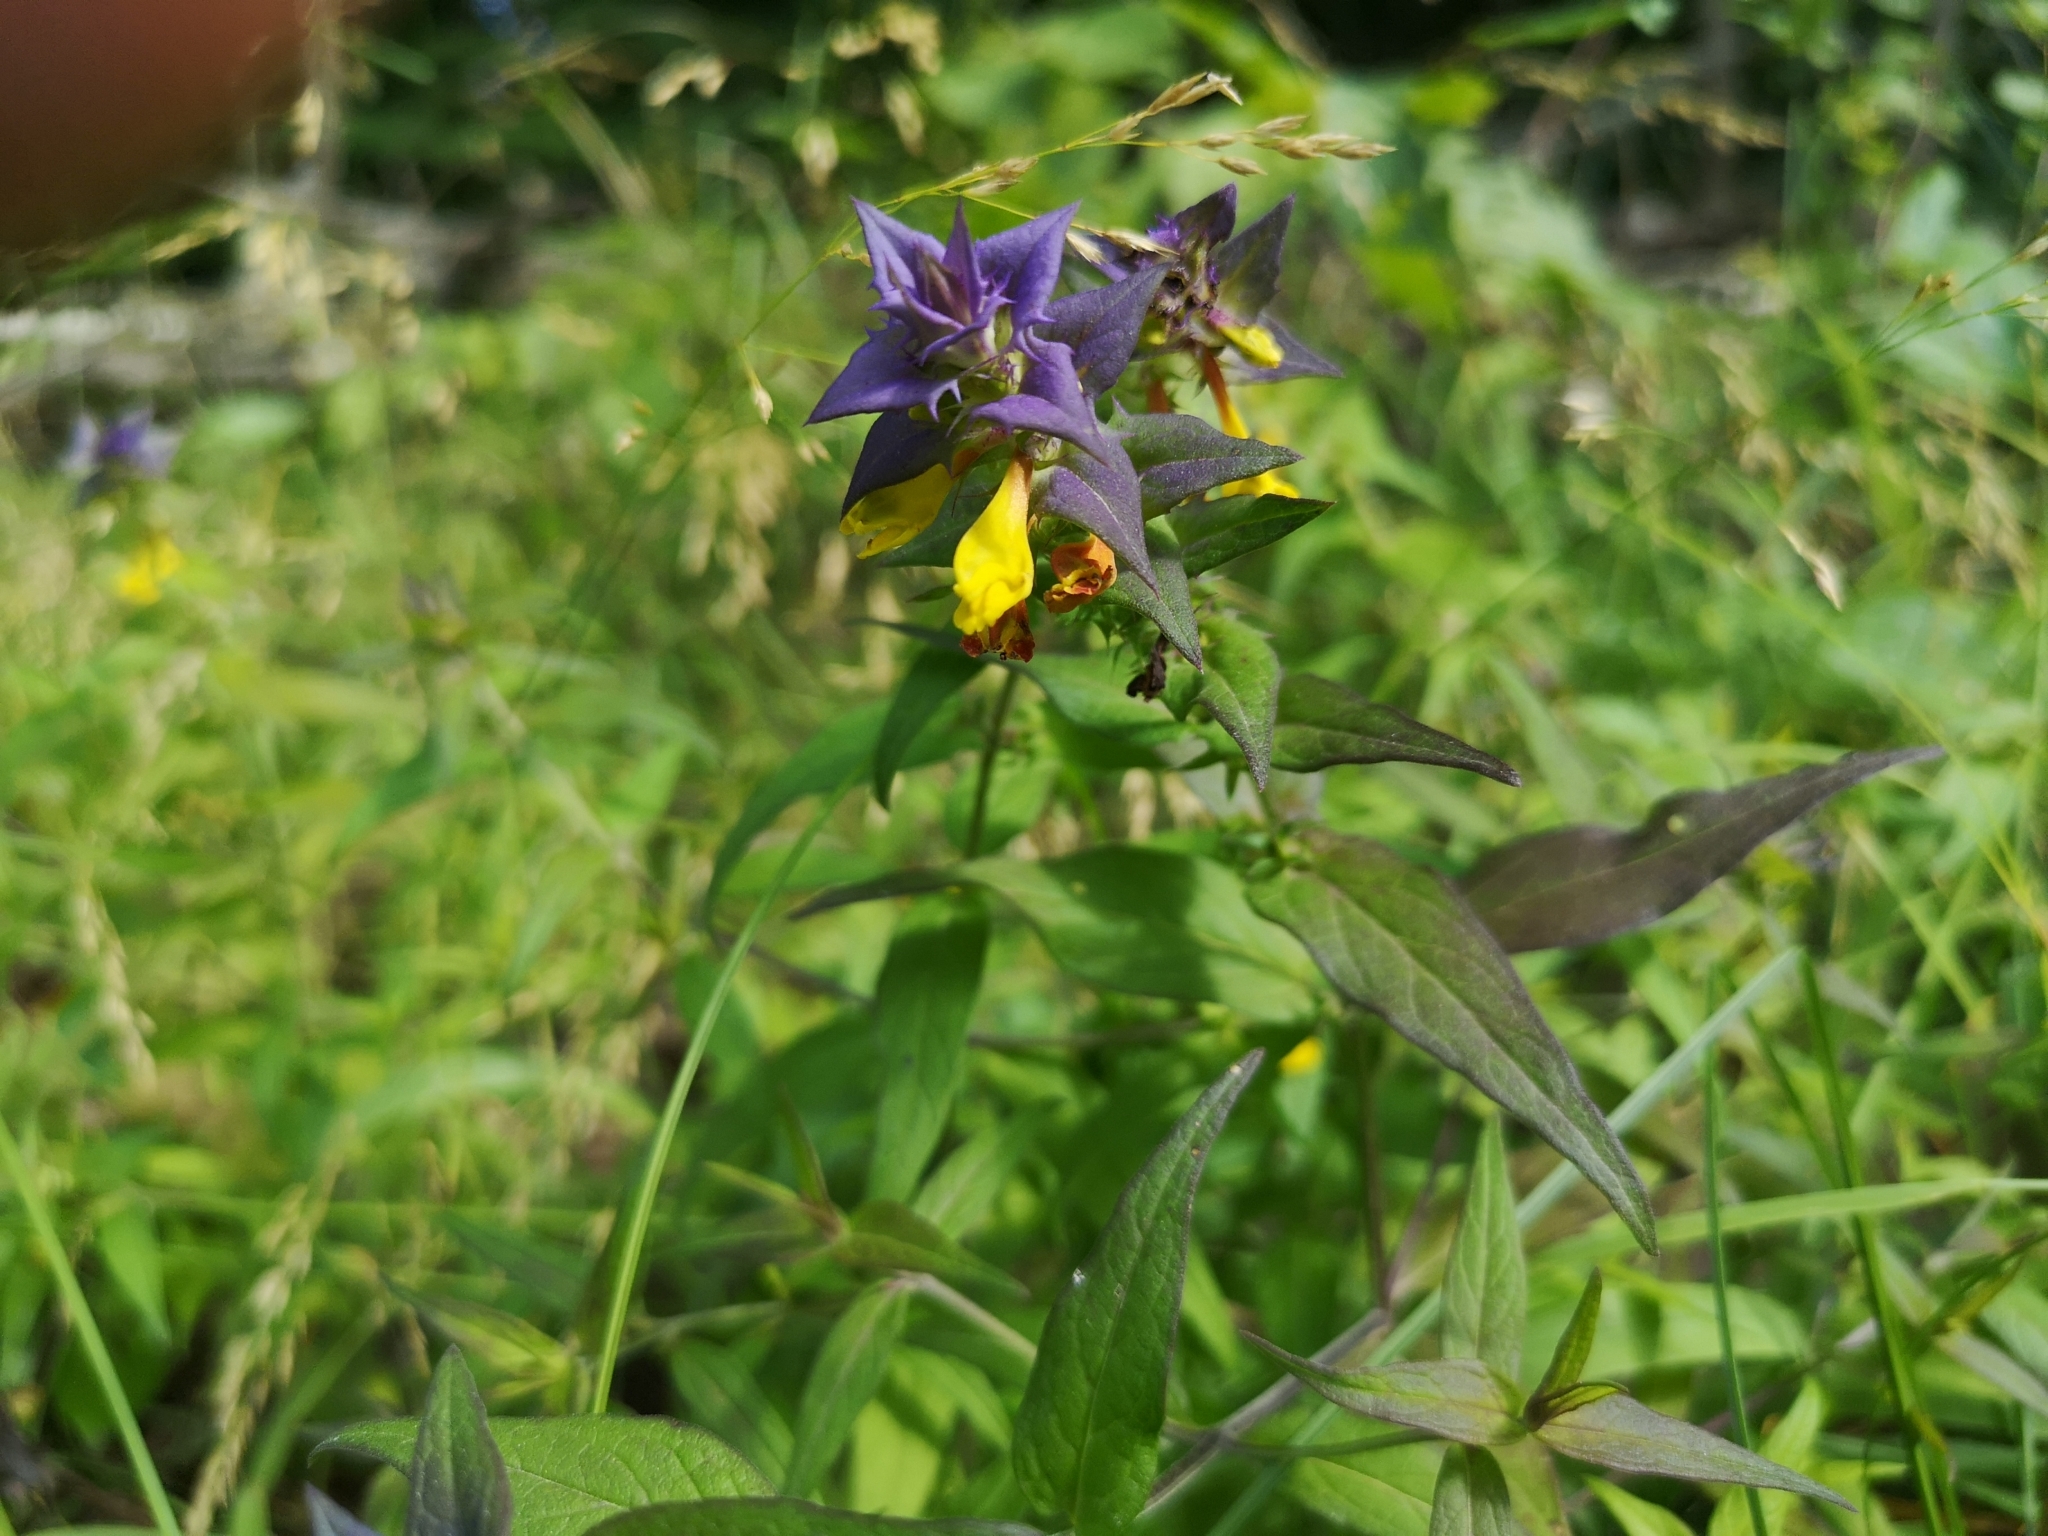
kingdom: Plantae
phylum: Tracheophyta
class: Magnoliopsida
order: Lamiales
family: Orobanchaceae
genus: Melampyrum
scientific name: Melampyrum nemorosum
